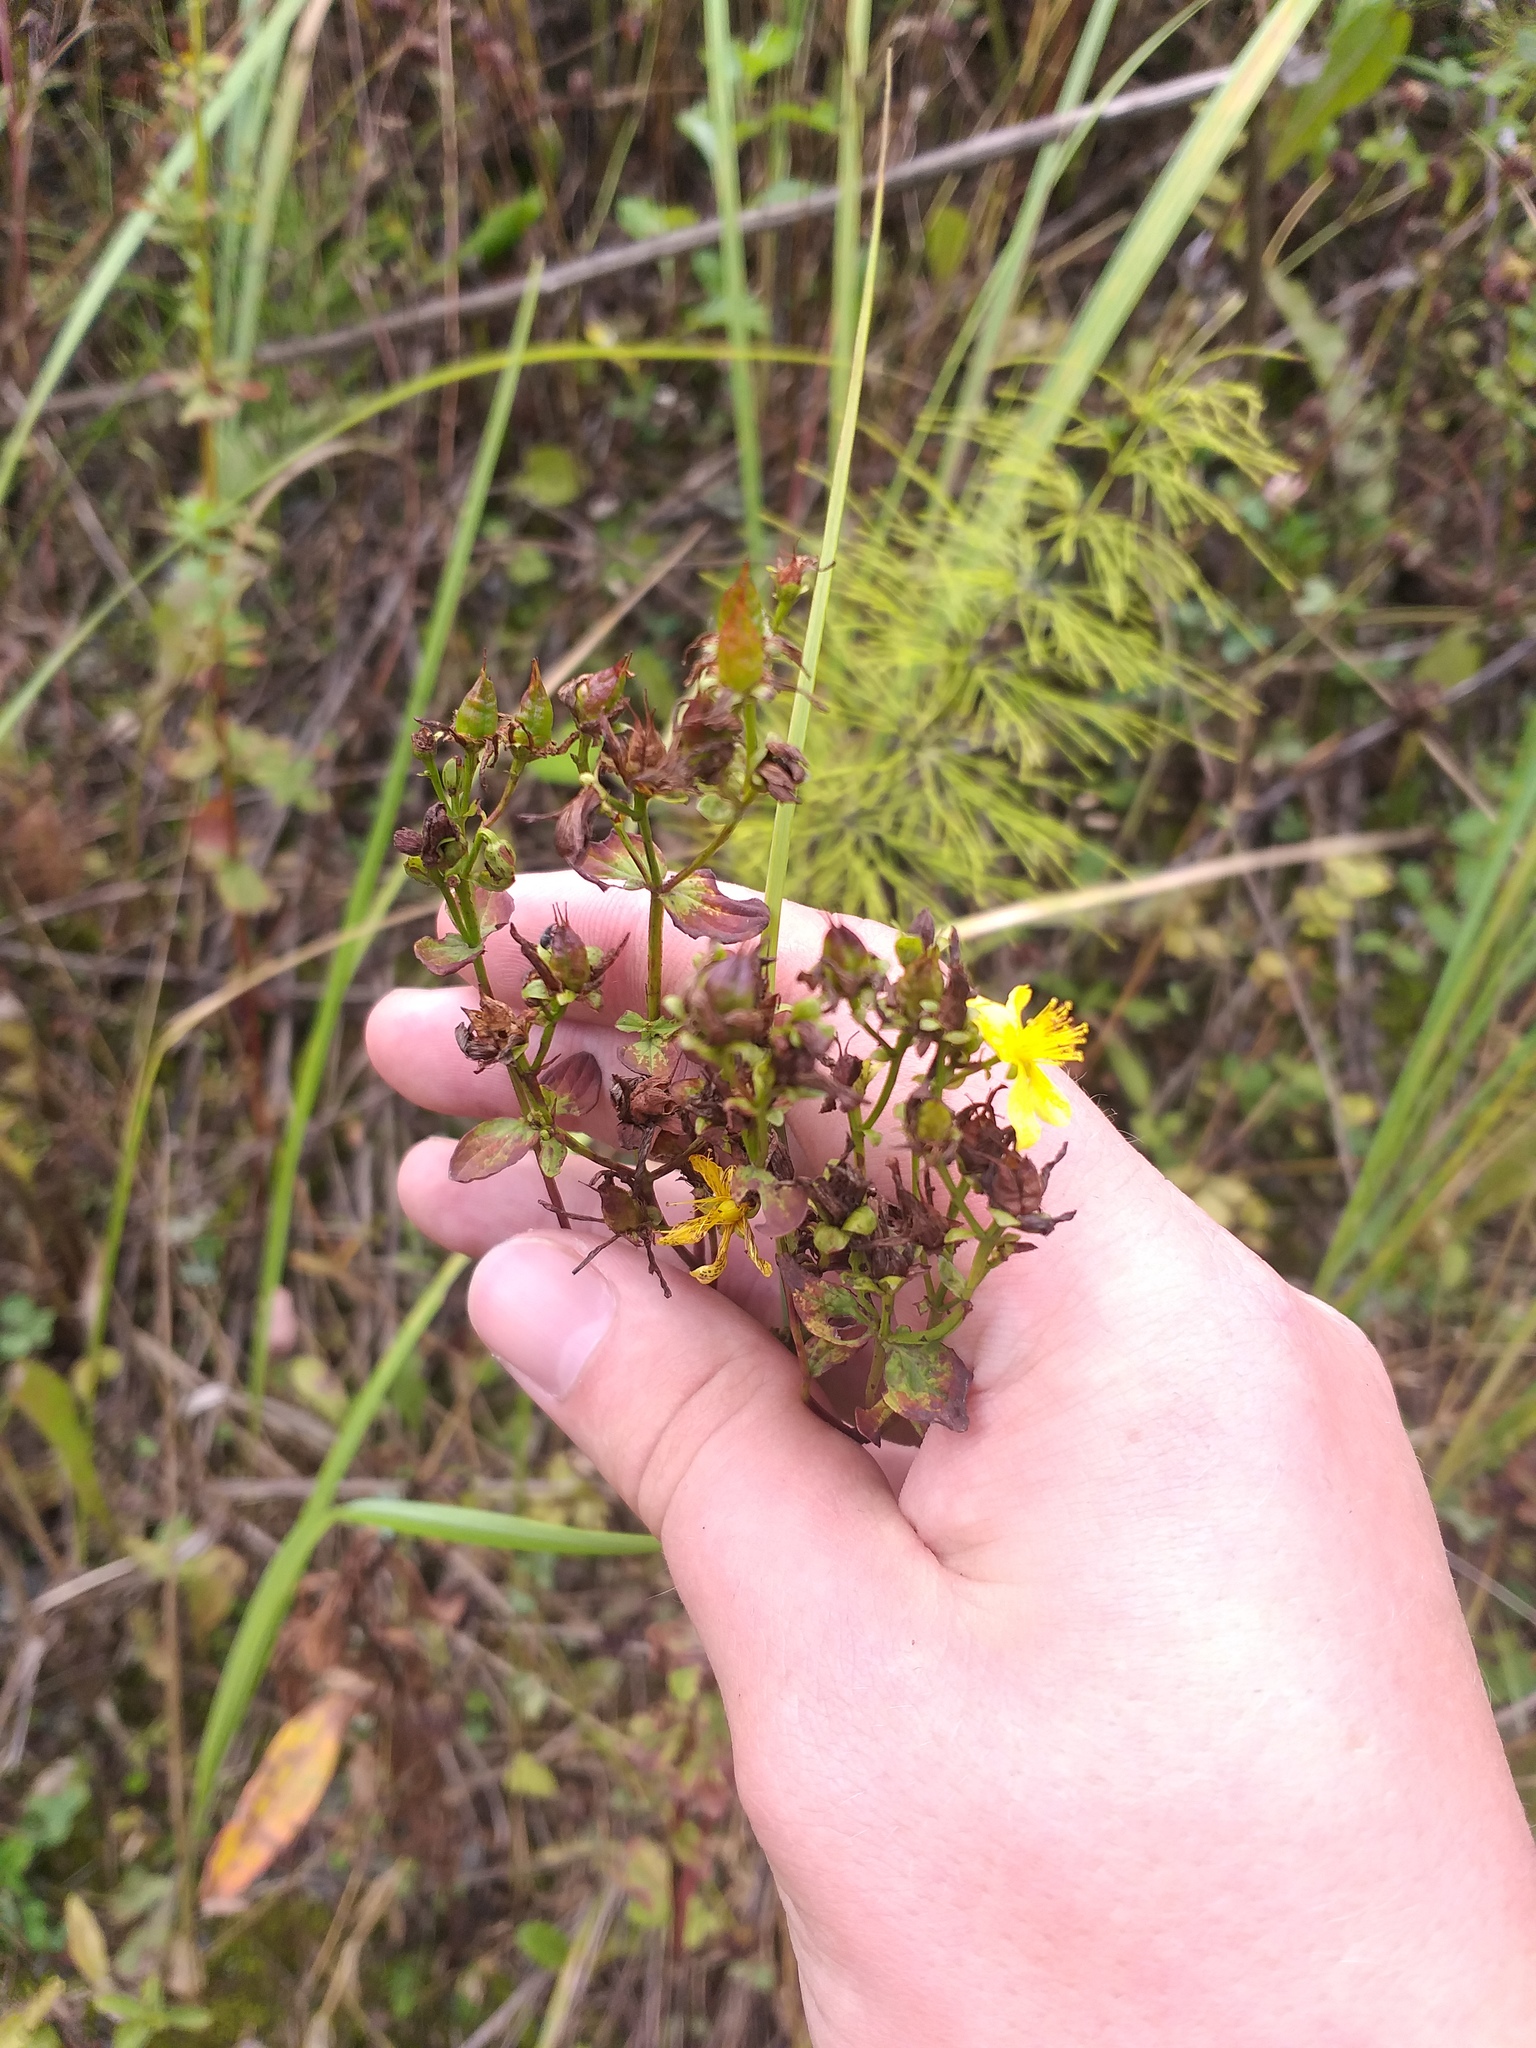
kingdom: Plantae
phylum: Tracheophyta
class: Magnoliopsida
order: Malpighiales
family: Hypericaceae
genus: Hypericum
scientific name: Hypericum maculatum
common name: Imperforate st. john's-wort
